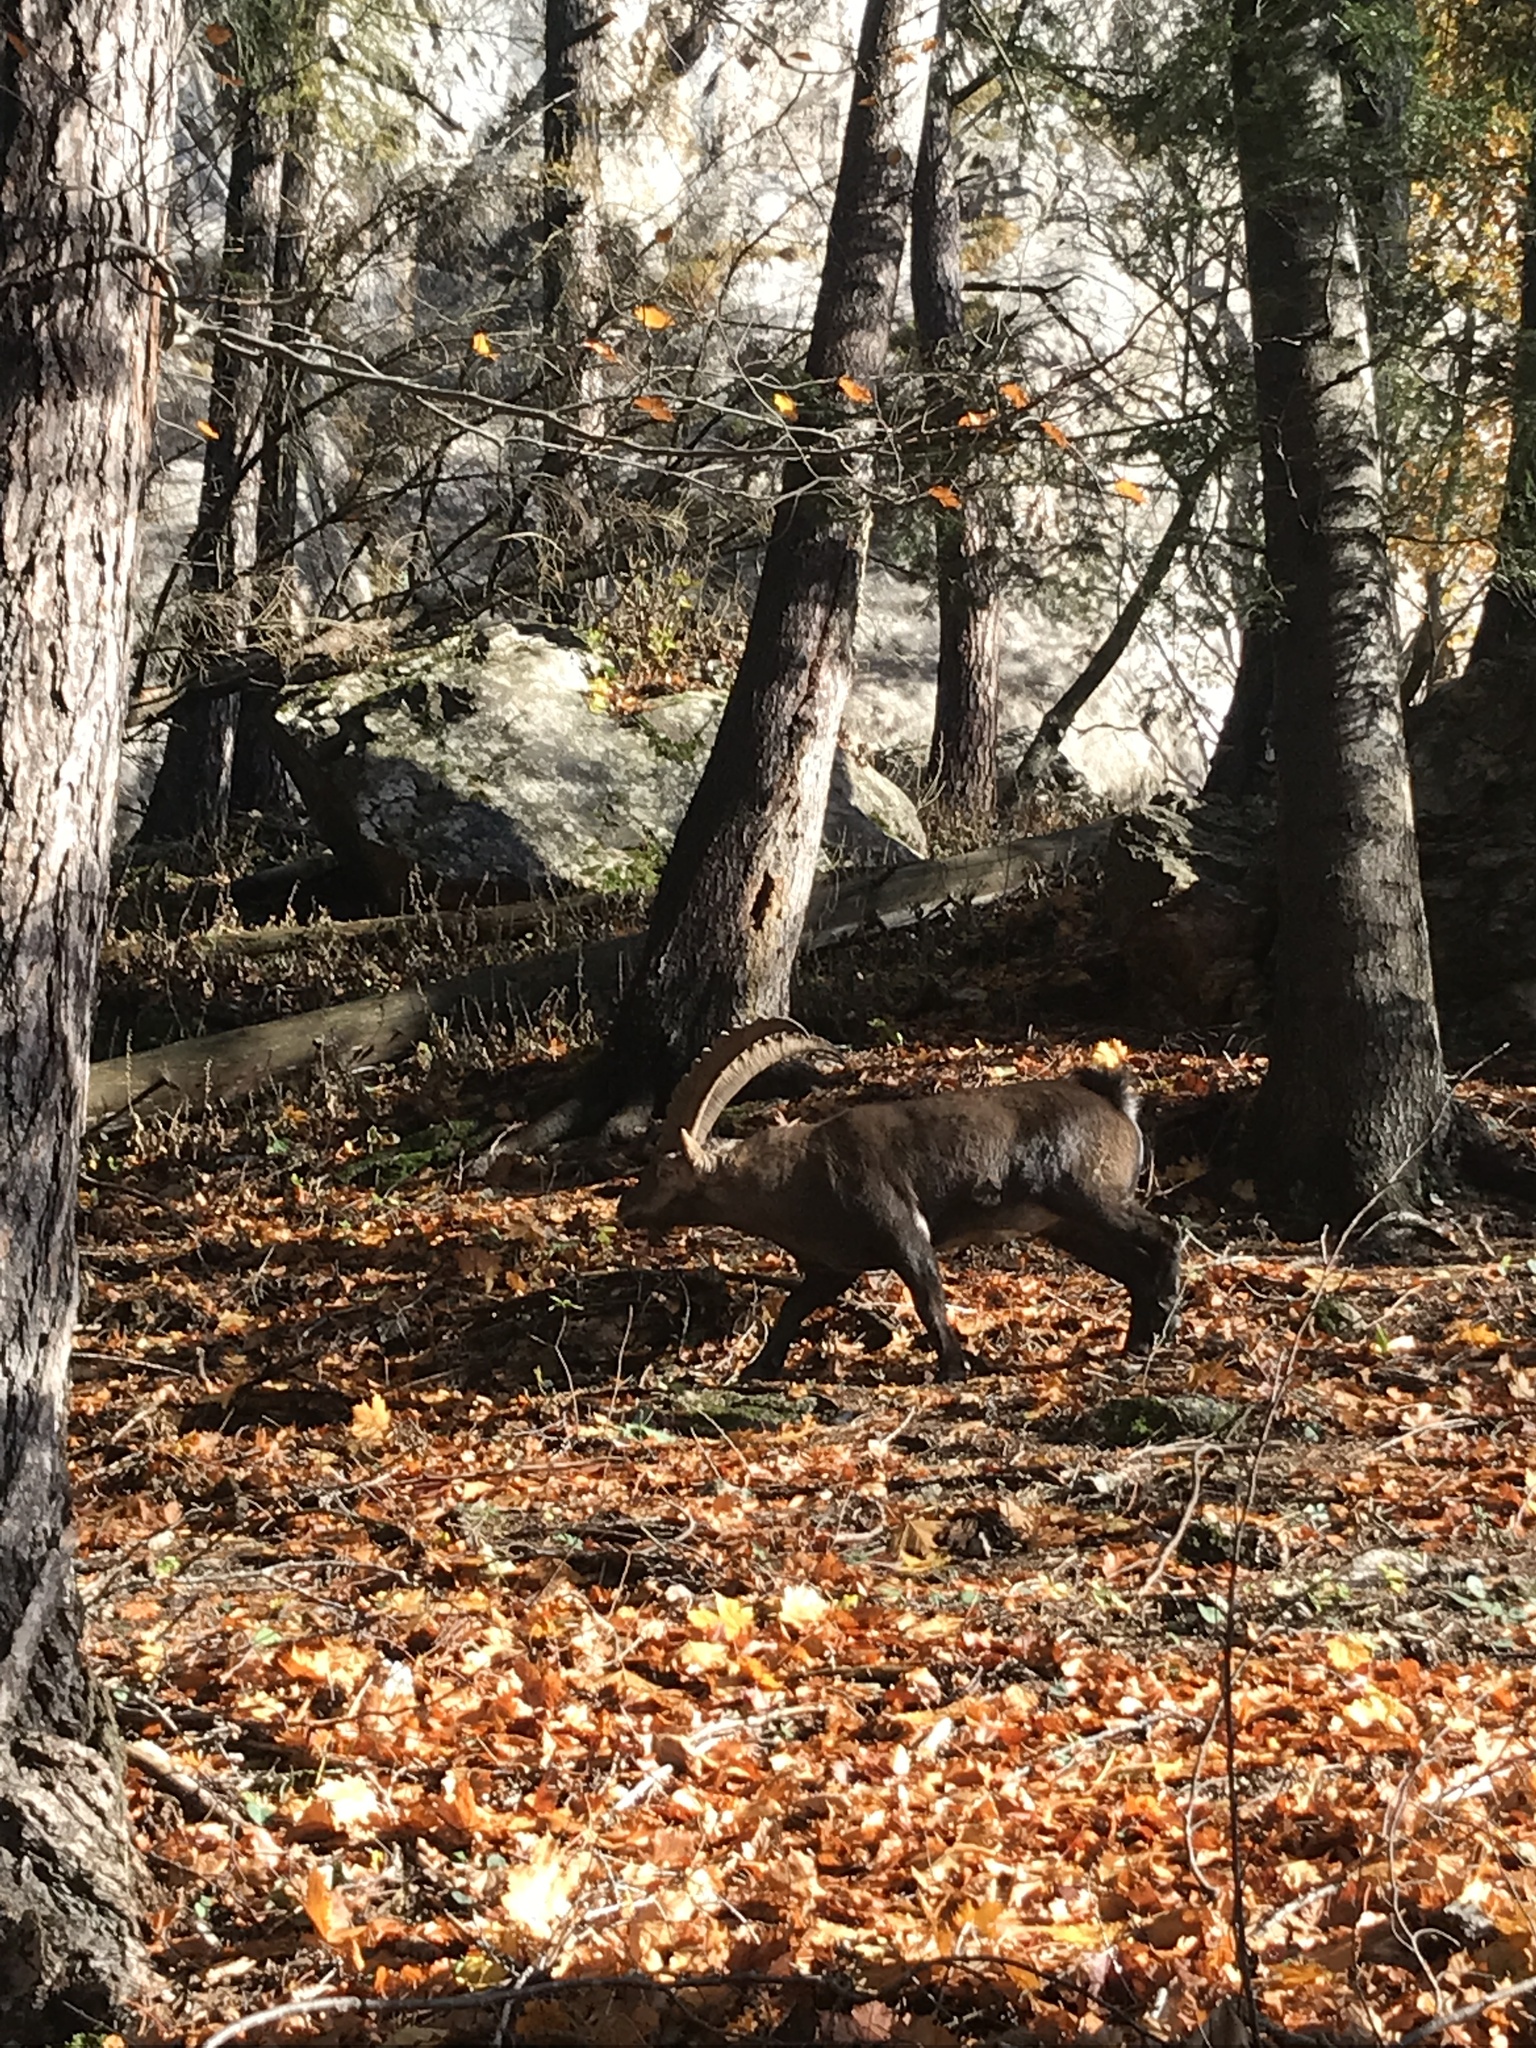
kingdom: Animalia
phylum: Chordata
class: Mammalia
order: Artiodactyla
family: Bovidae
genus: Capra
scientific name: Capra ibex
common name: Alpine ibex
